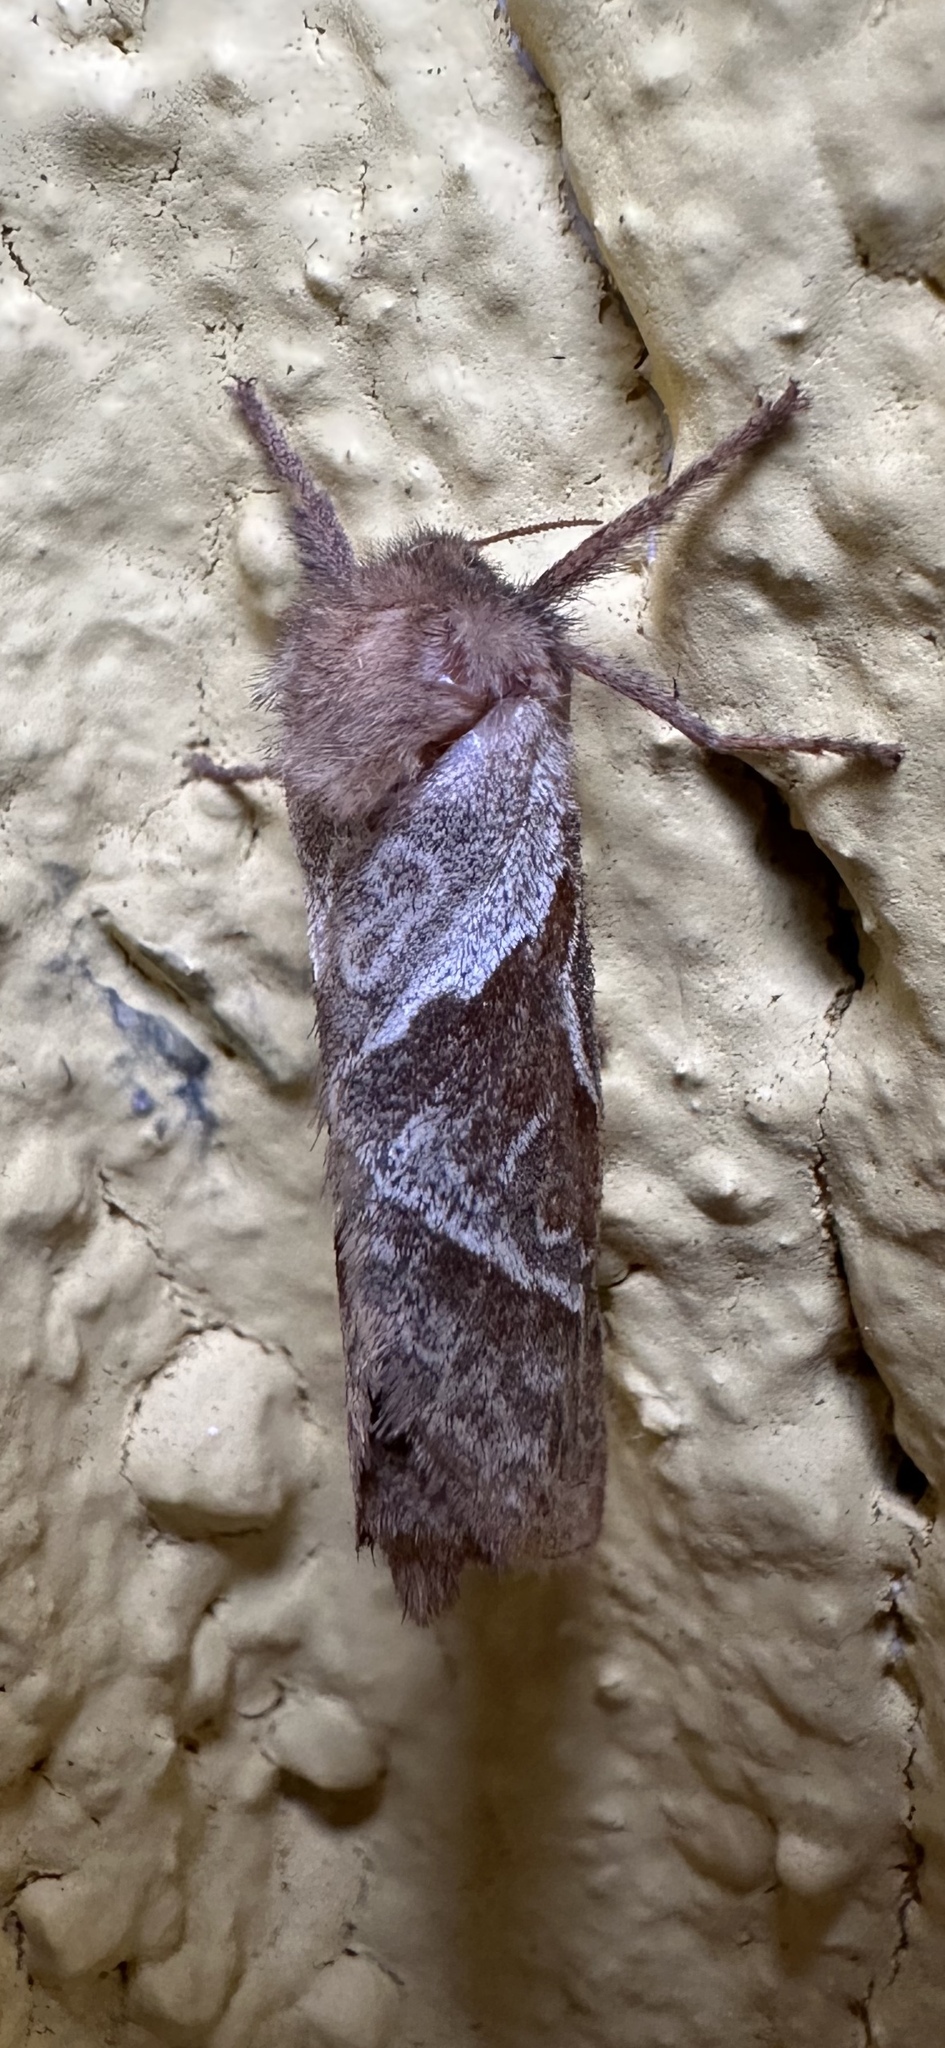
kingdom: Animalia
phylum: Arthropoda
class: Insecta
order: Lepidoptera
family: Hepialidae
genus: Triodia
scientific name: Triodia sylvina
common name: Orange swift
